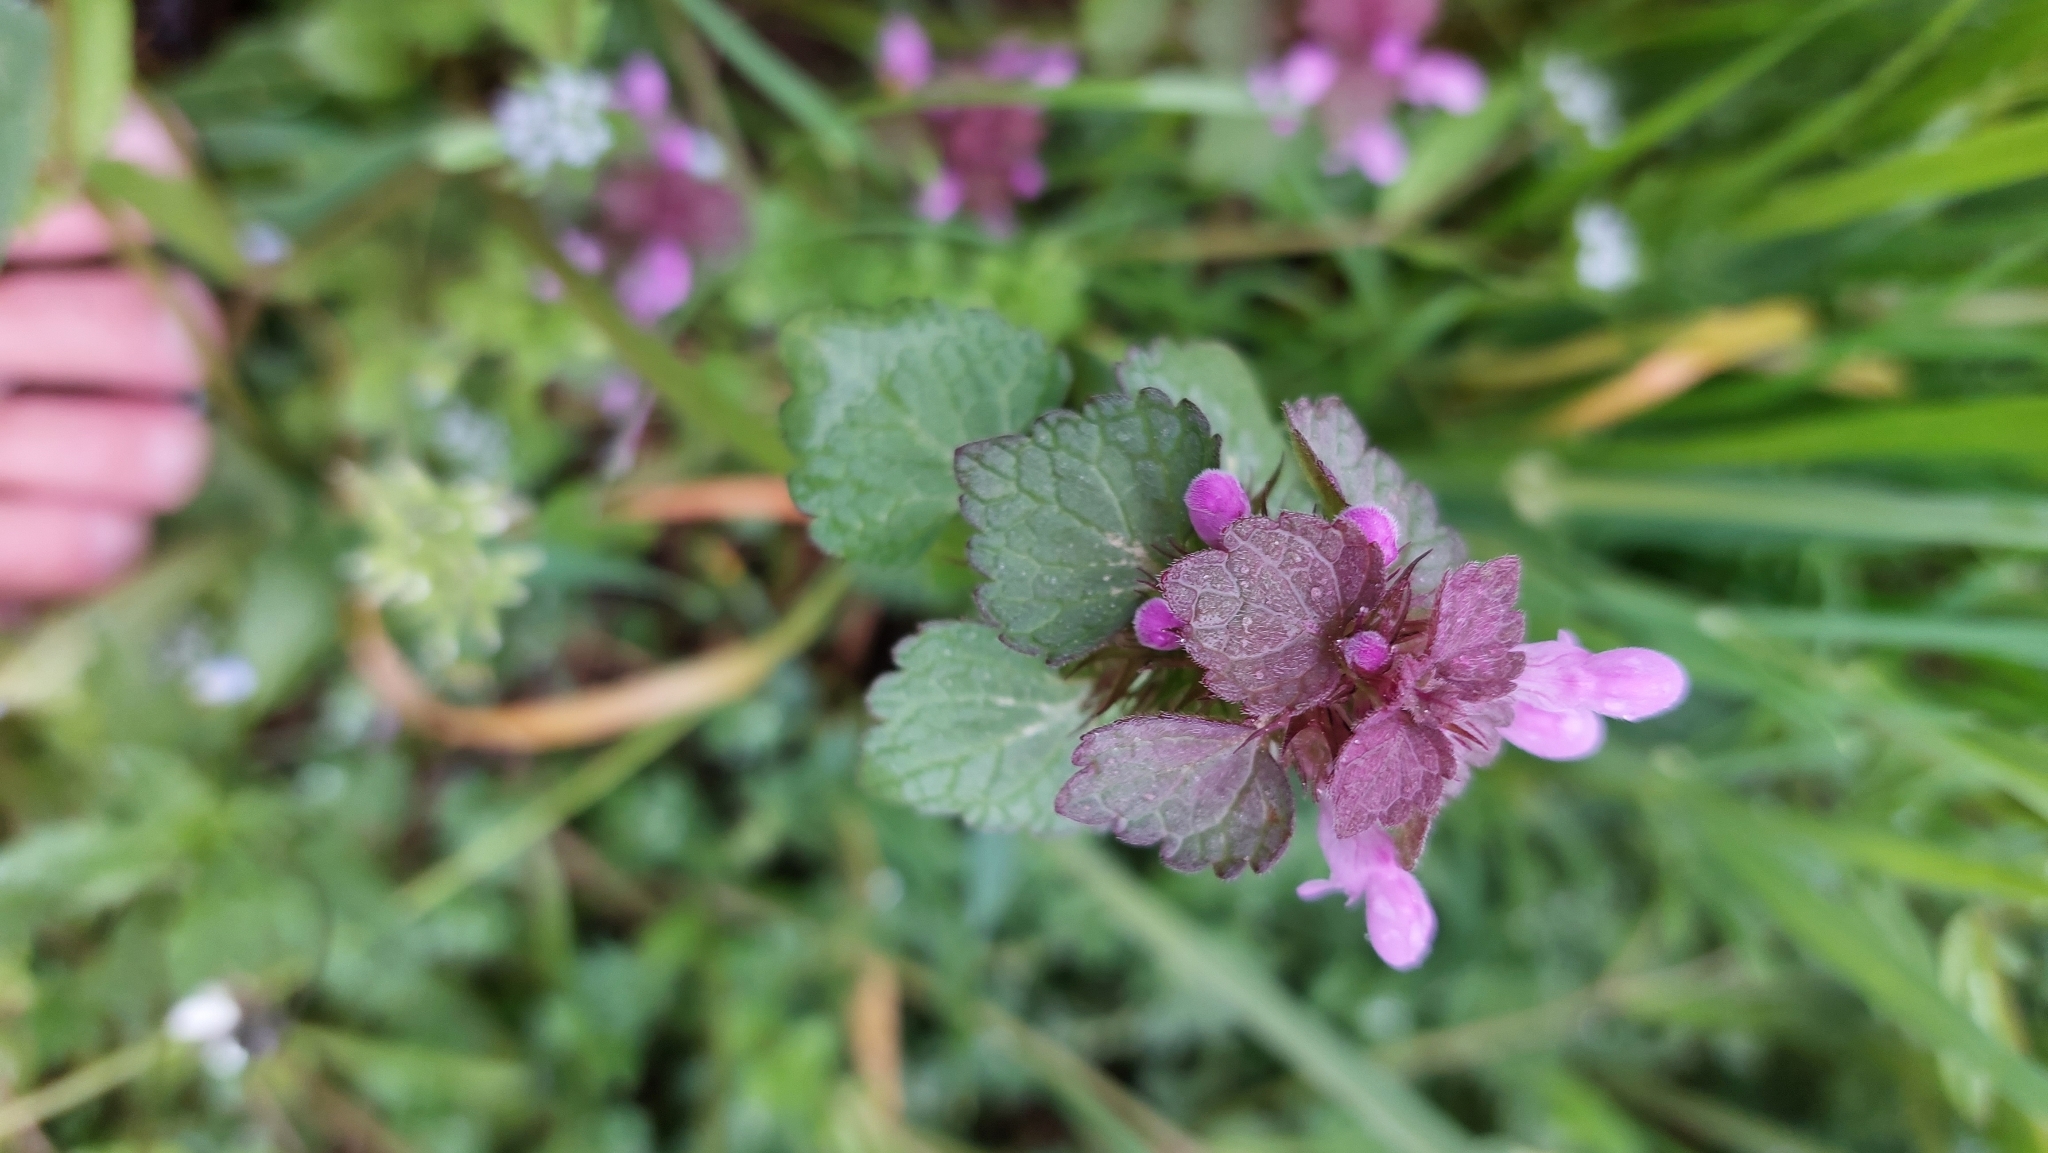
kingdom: Plantae
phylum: Tracheophyta
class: Magnoliopsida
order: Lamiales
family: Lamiaceae
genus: Lamium
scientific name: Lamium purpureum
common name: Red dead-nettle
